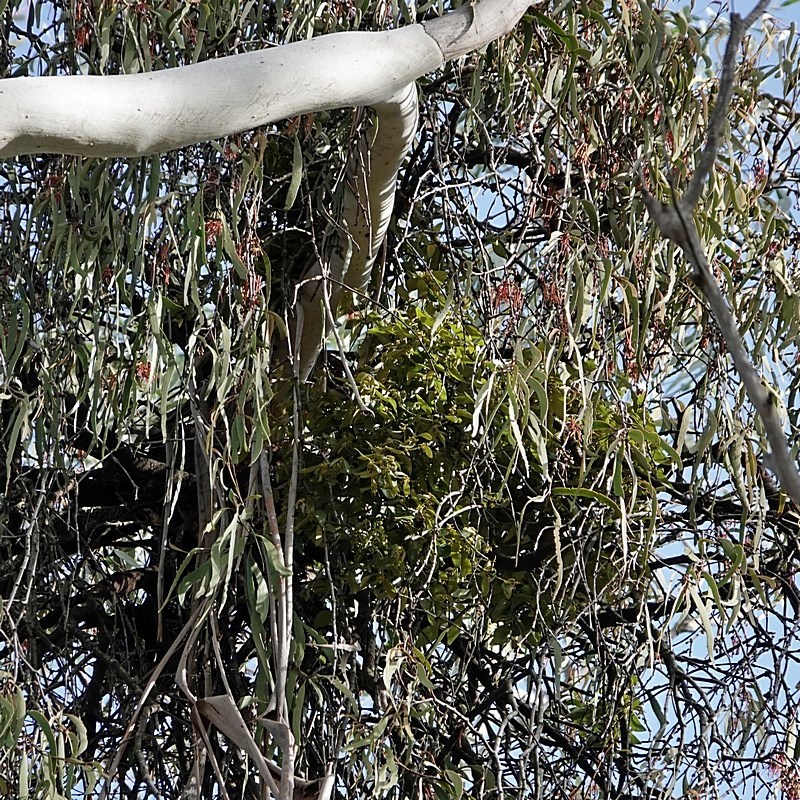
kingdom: Plantae
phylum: Tracheophyta
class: Magnoliopsida
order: Santalales
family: Viscaceae
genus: Notothixos
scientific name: Notothixos subaureus
